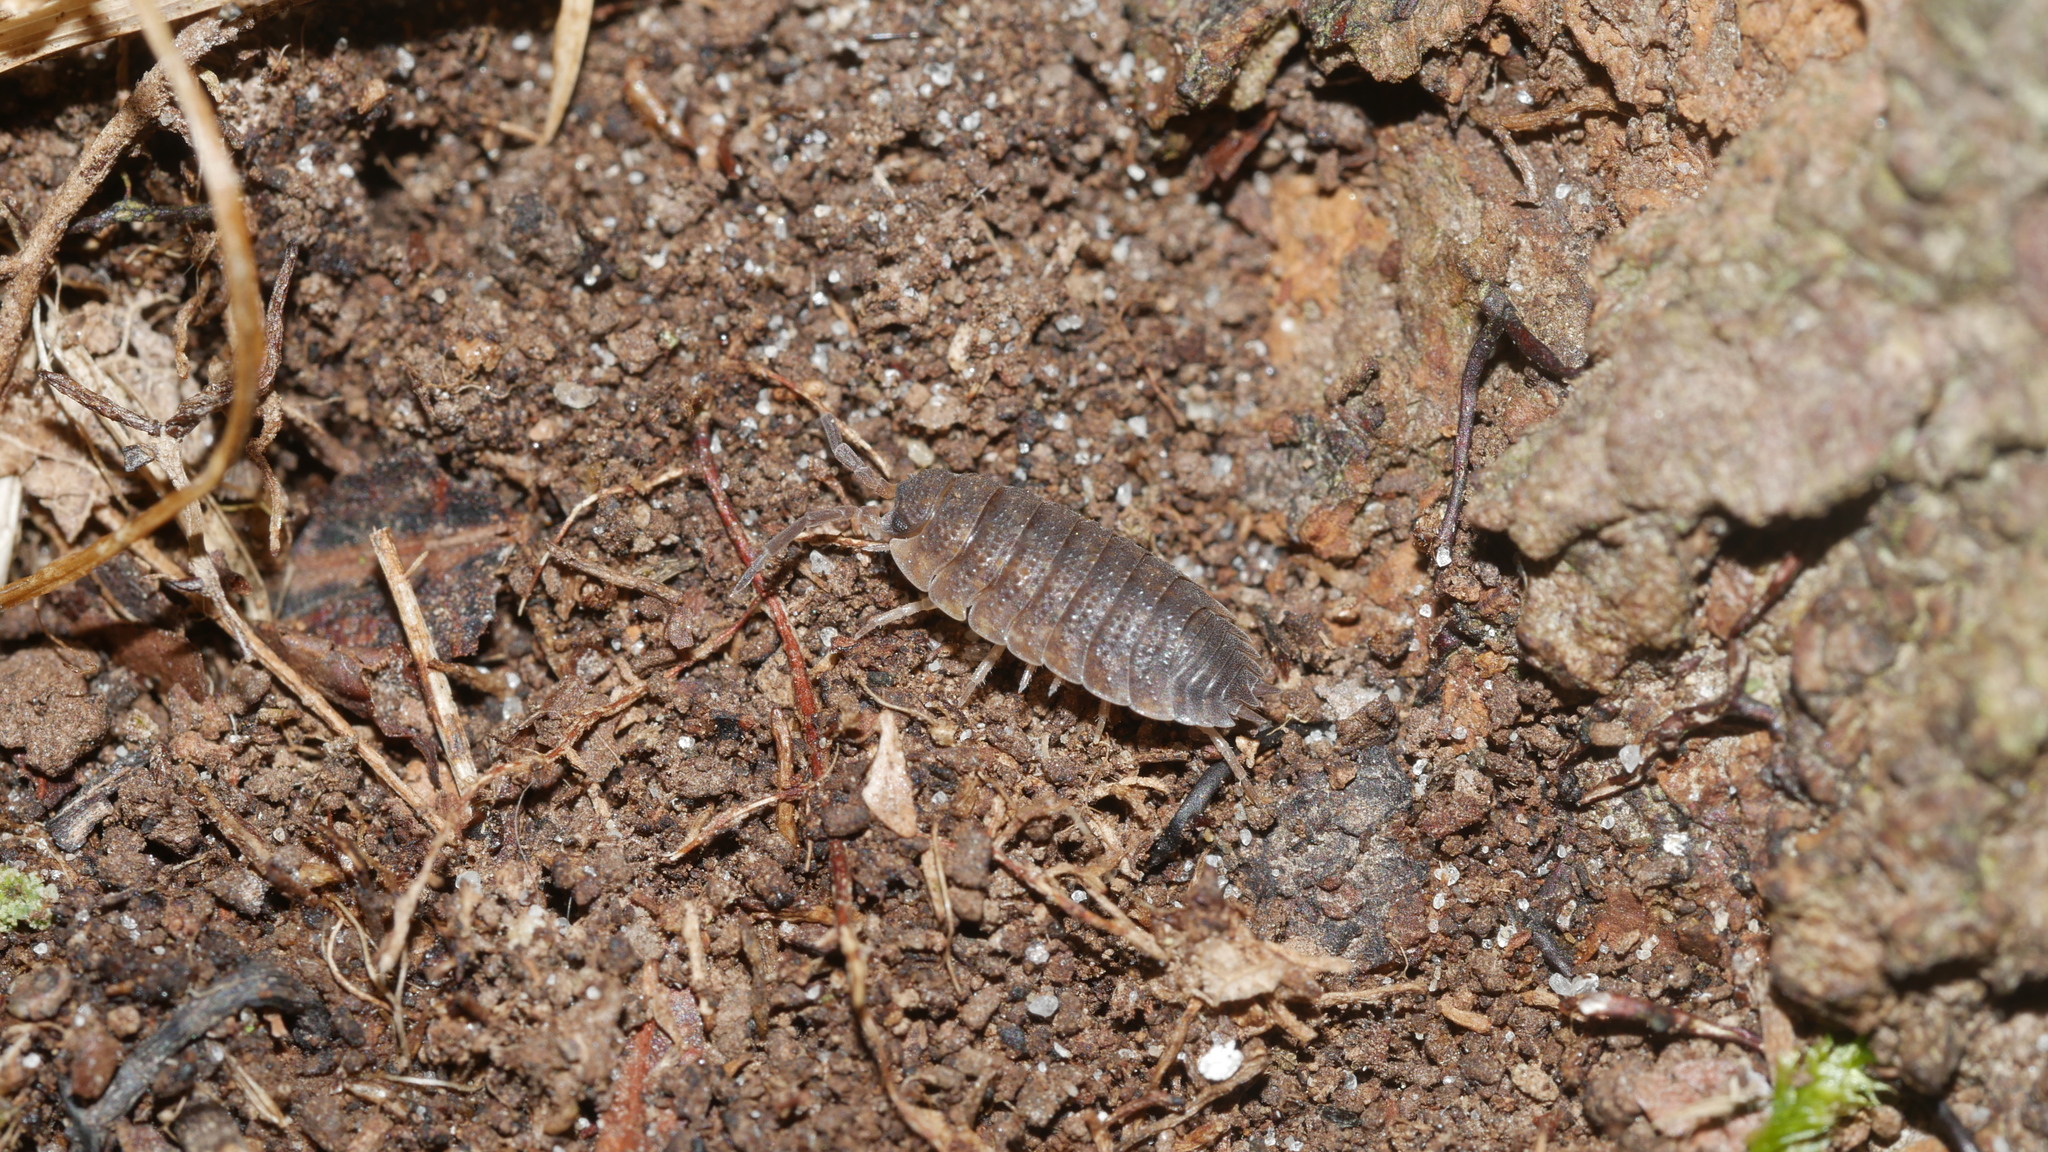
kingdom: Animalia
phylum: Arthropoda
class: Malacostraca
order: Isopoda
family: Porcellionidae
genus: Porcellio
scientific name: Porcellio scaber
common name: Common rough woodlouse
